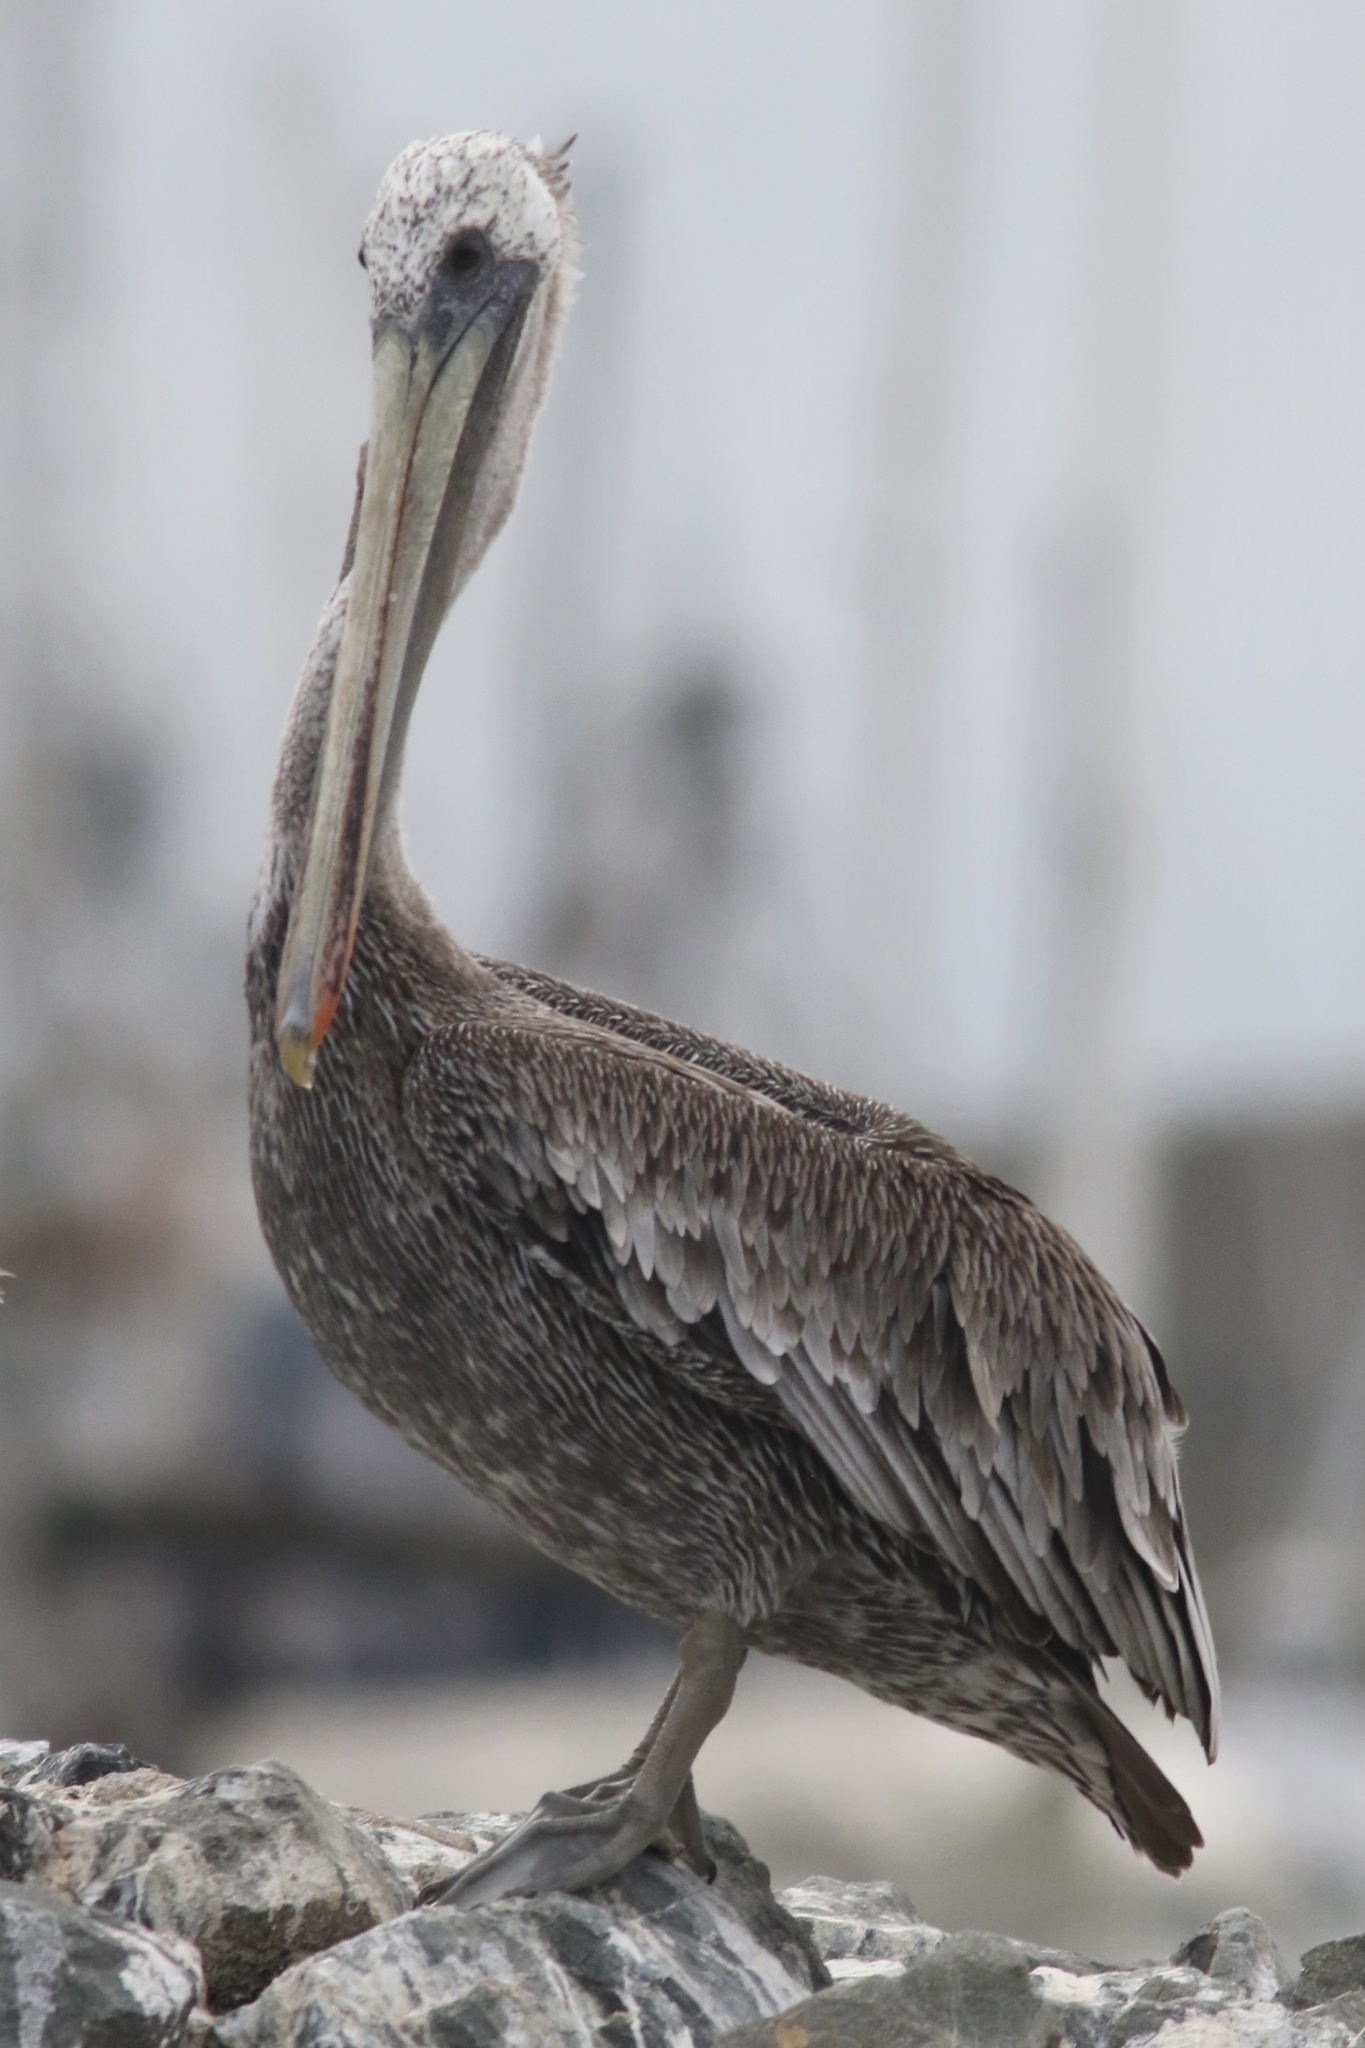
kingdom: Animalia
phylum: Chordata
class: Aves
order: Pelecaniformes
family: Pelecanidae
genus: Pelecanus
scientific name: Pelecanus occidentalis
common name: Brown pelican
